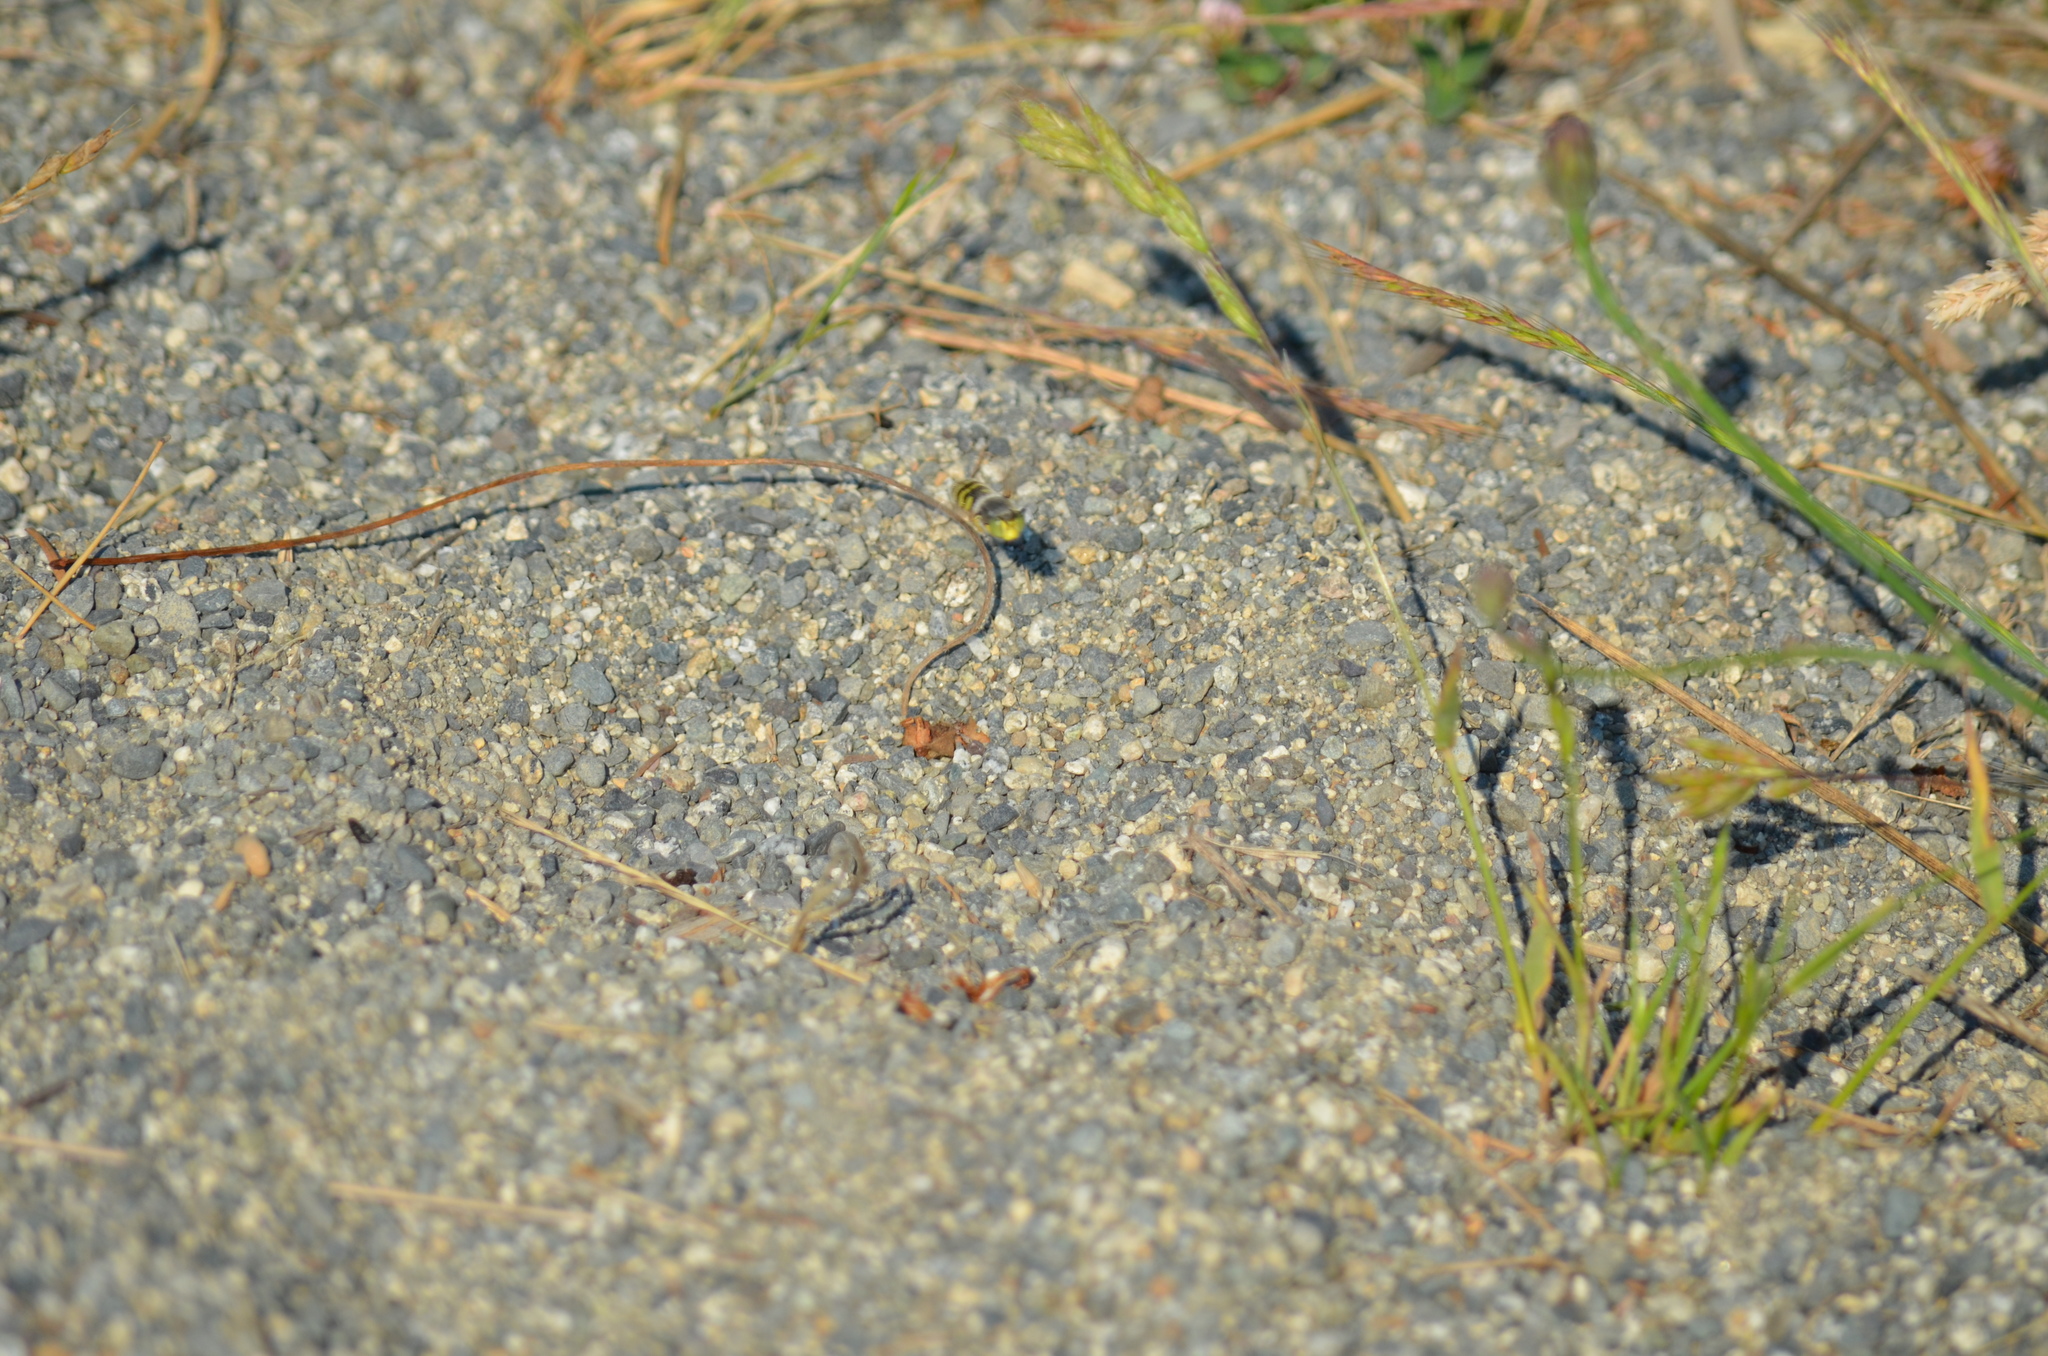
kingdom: Animalia
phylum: Arthropoda
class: Insecta
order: Hymenoptera
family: Crabronidae
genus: Bembix
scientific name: Bembix americana
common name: American sand wasp
